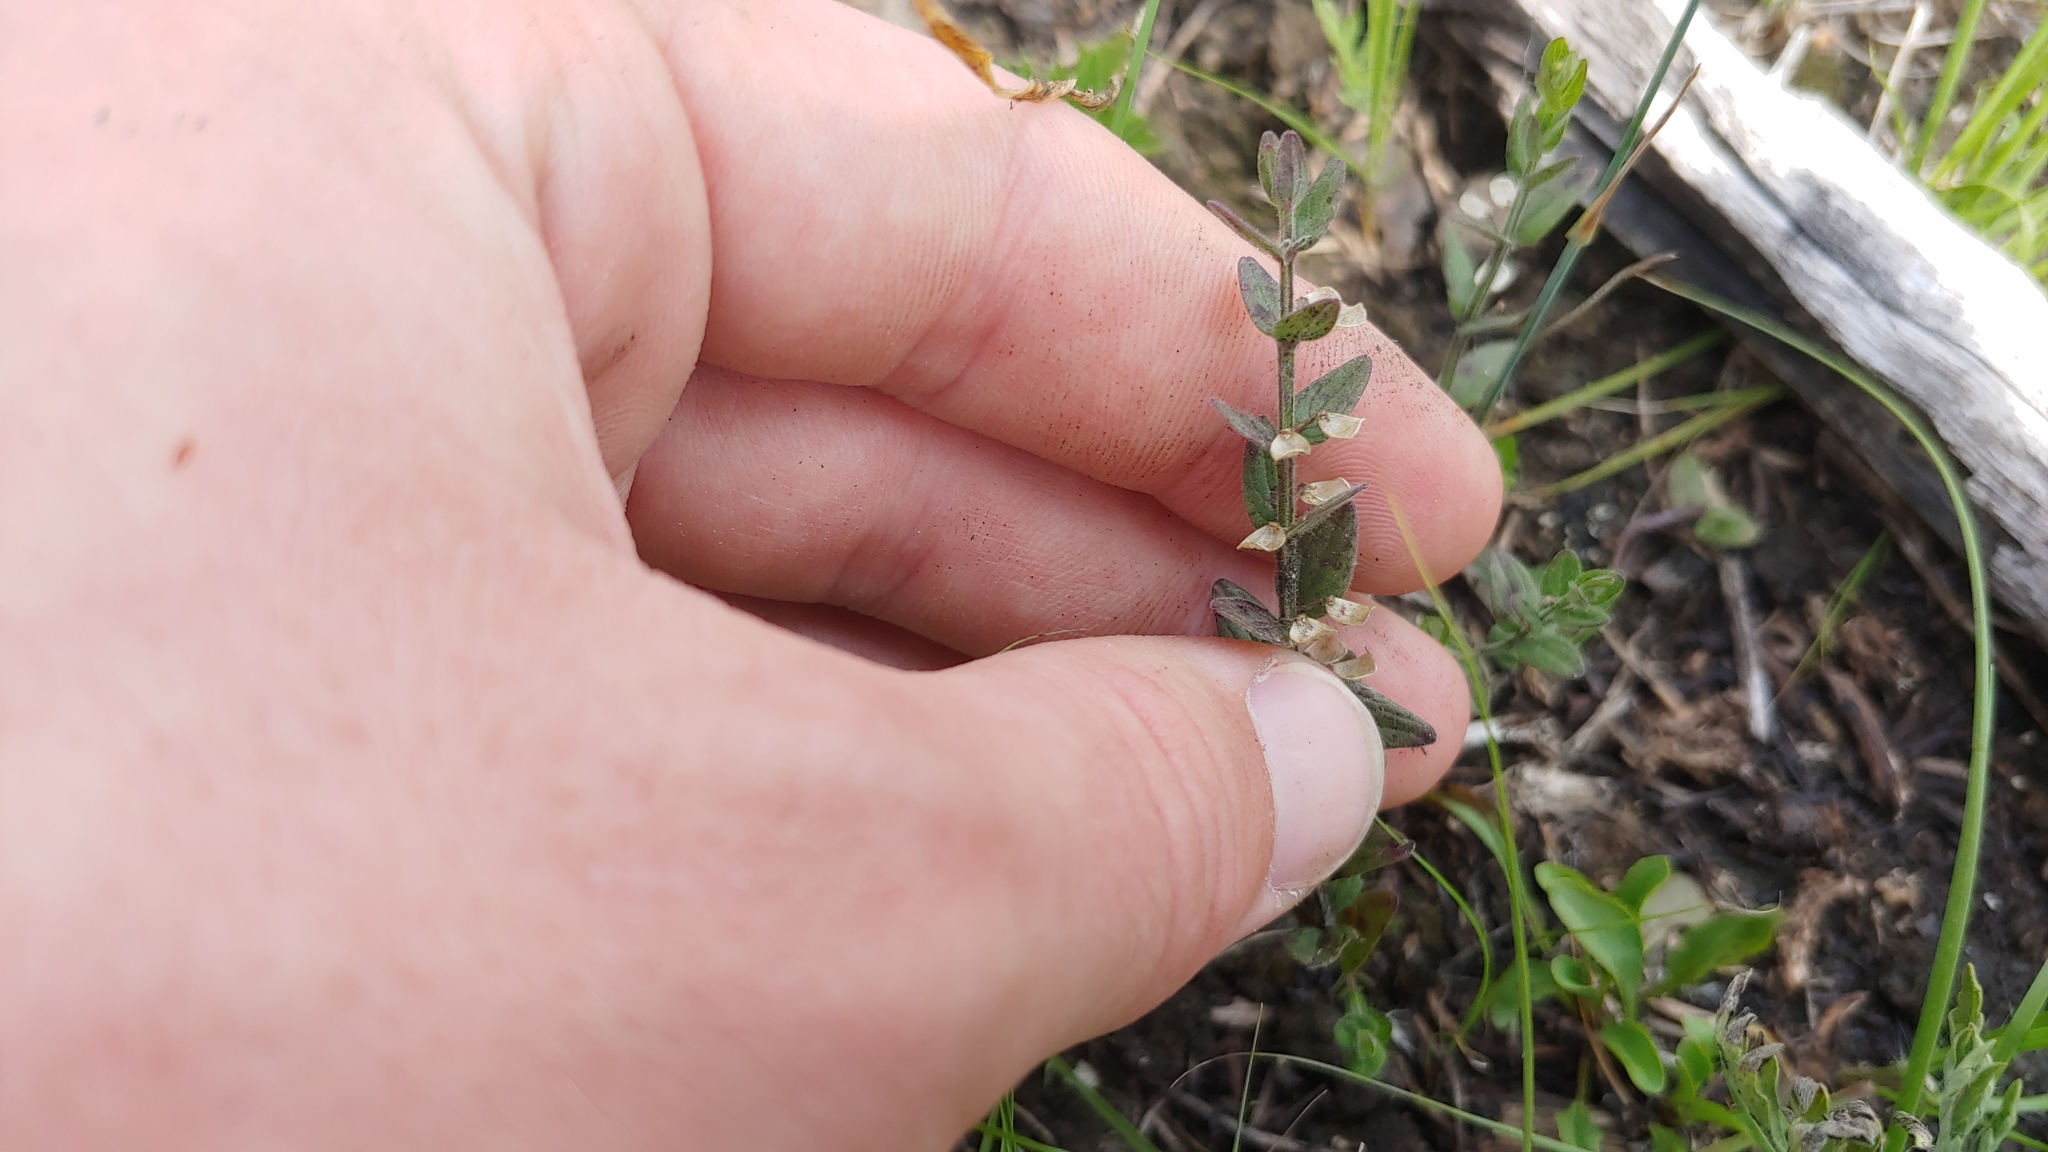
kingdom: Plantae
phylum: Tracheophyta
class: Magnoliopsida
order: Lamiales
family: Lamiaceae
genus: Scutellaria
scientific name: Scutellaria parvula
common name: Little scullcap
